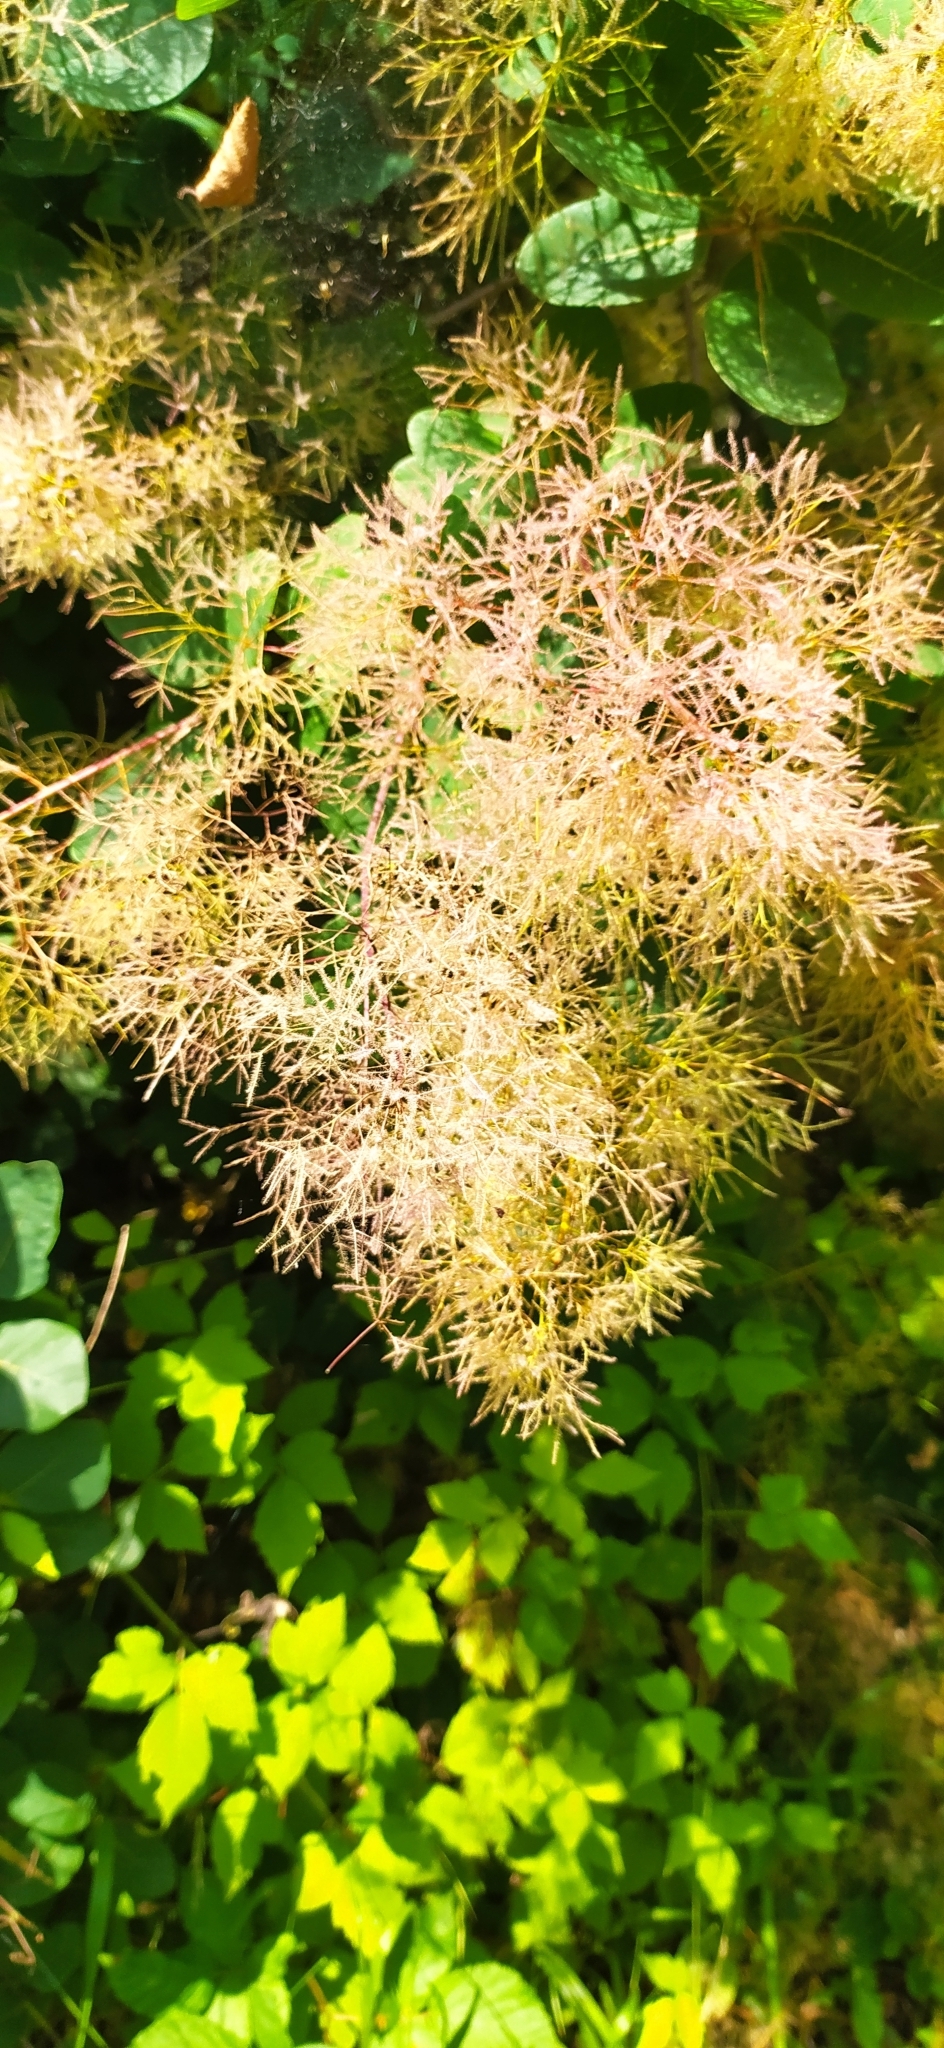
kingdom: Plantae
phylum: Tracheophyta
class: Magnoliopsida
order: Sapindales
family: Anacardiaceae
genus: Cotinus
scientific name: Cotinus coggygria
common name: Smoke-tree
